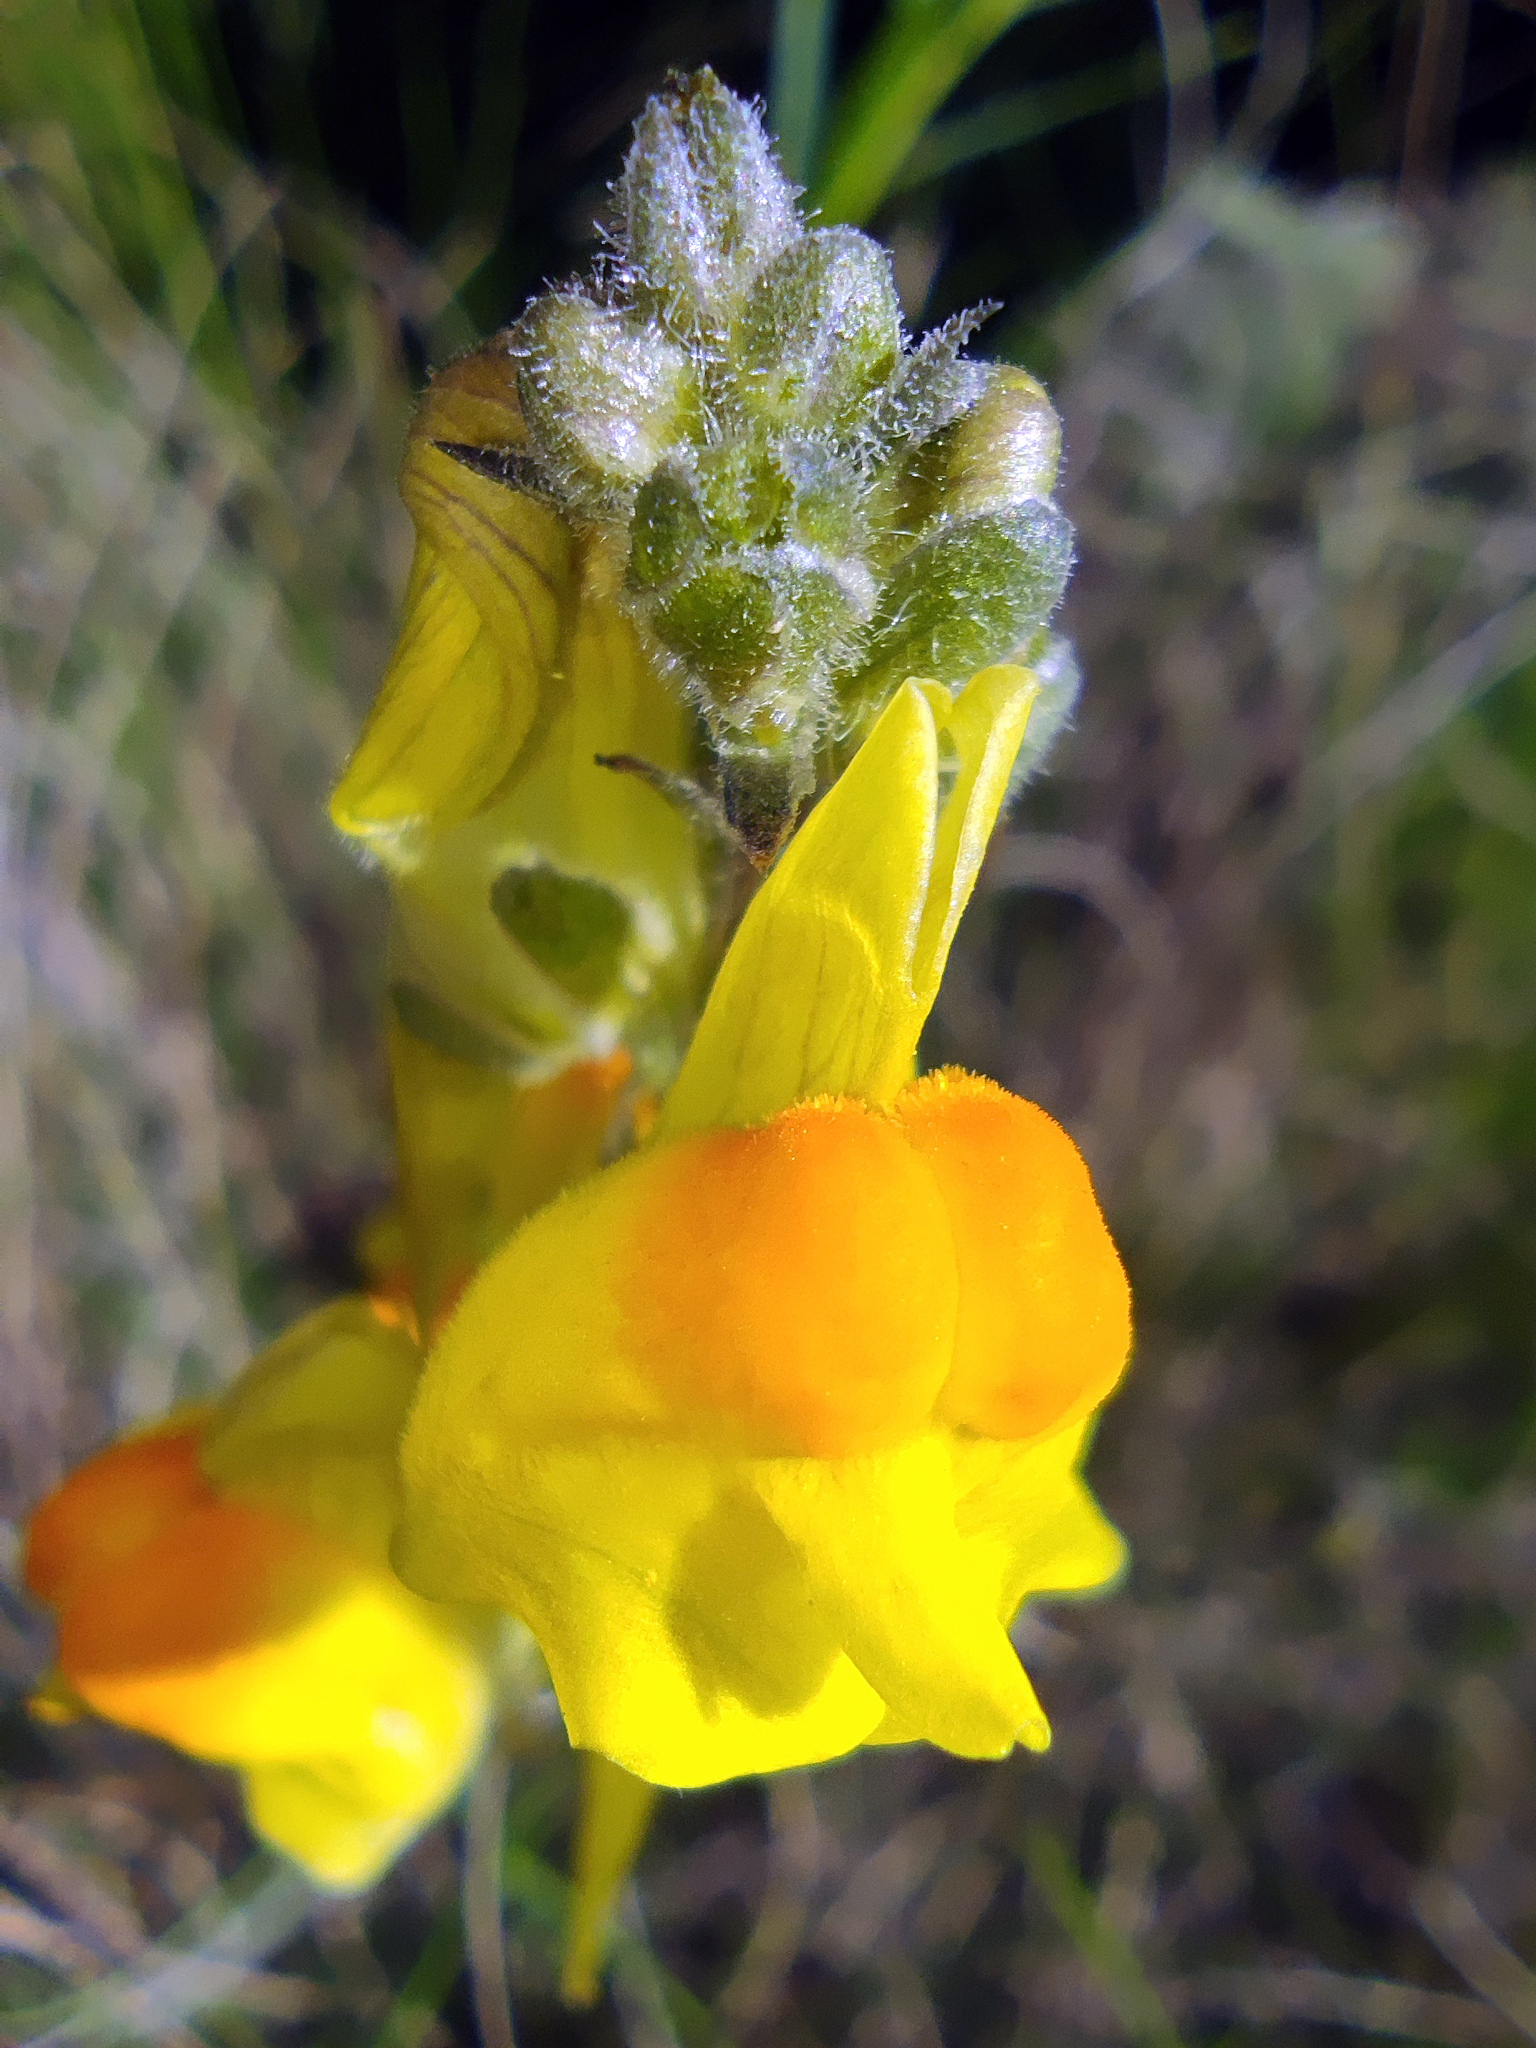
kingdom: Plantae
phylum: Tracheophyta
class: Magnoliopsida
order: Lamiales
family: Plantaginaceae
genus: Linaria
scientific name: Linaria vulgaris
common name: Butter and eggs
